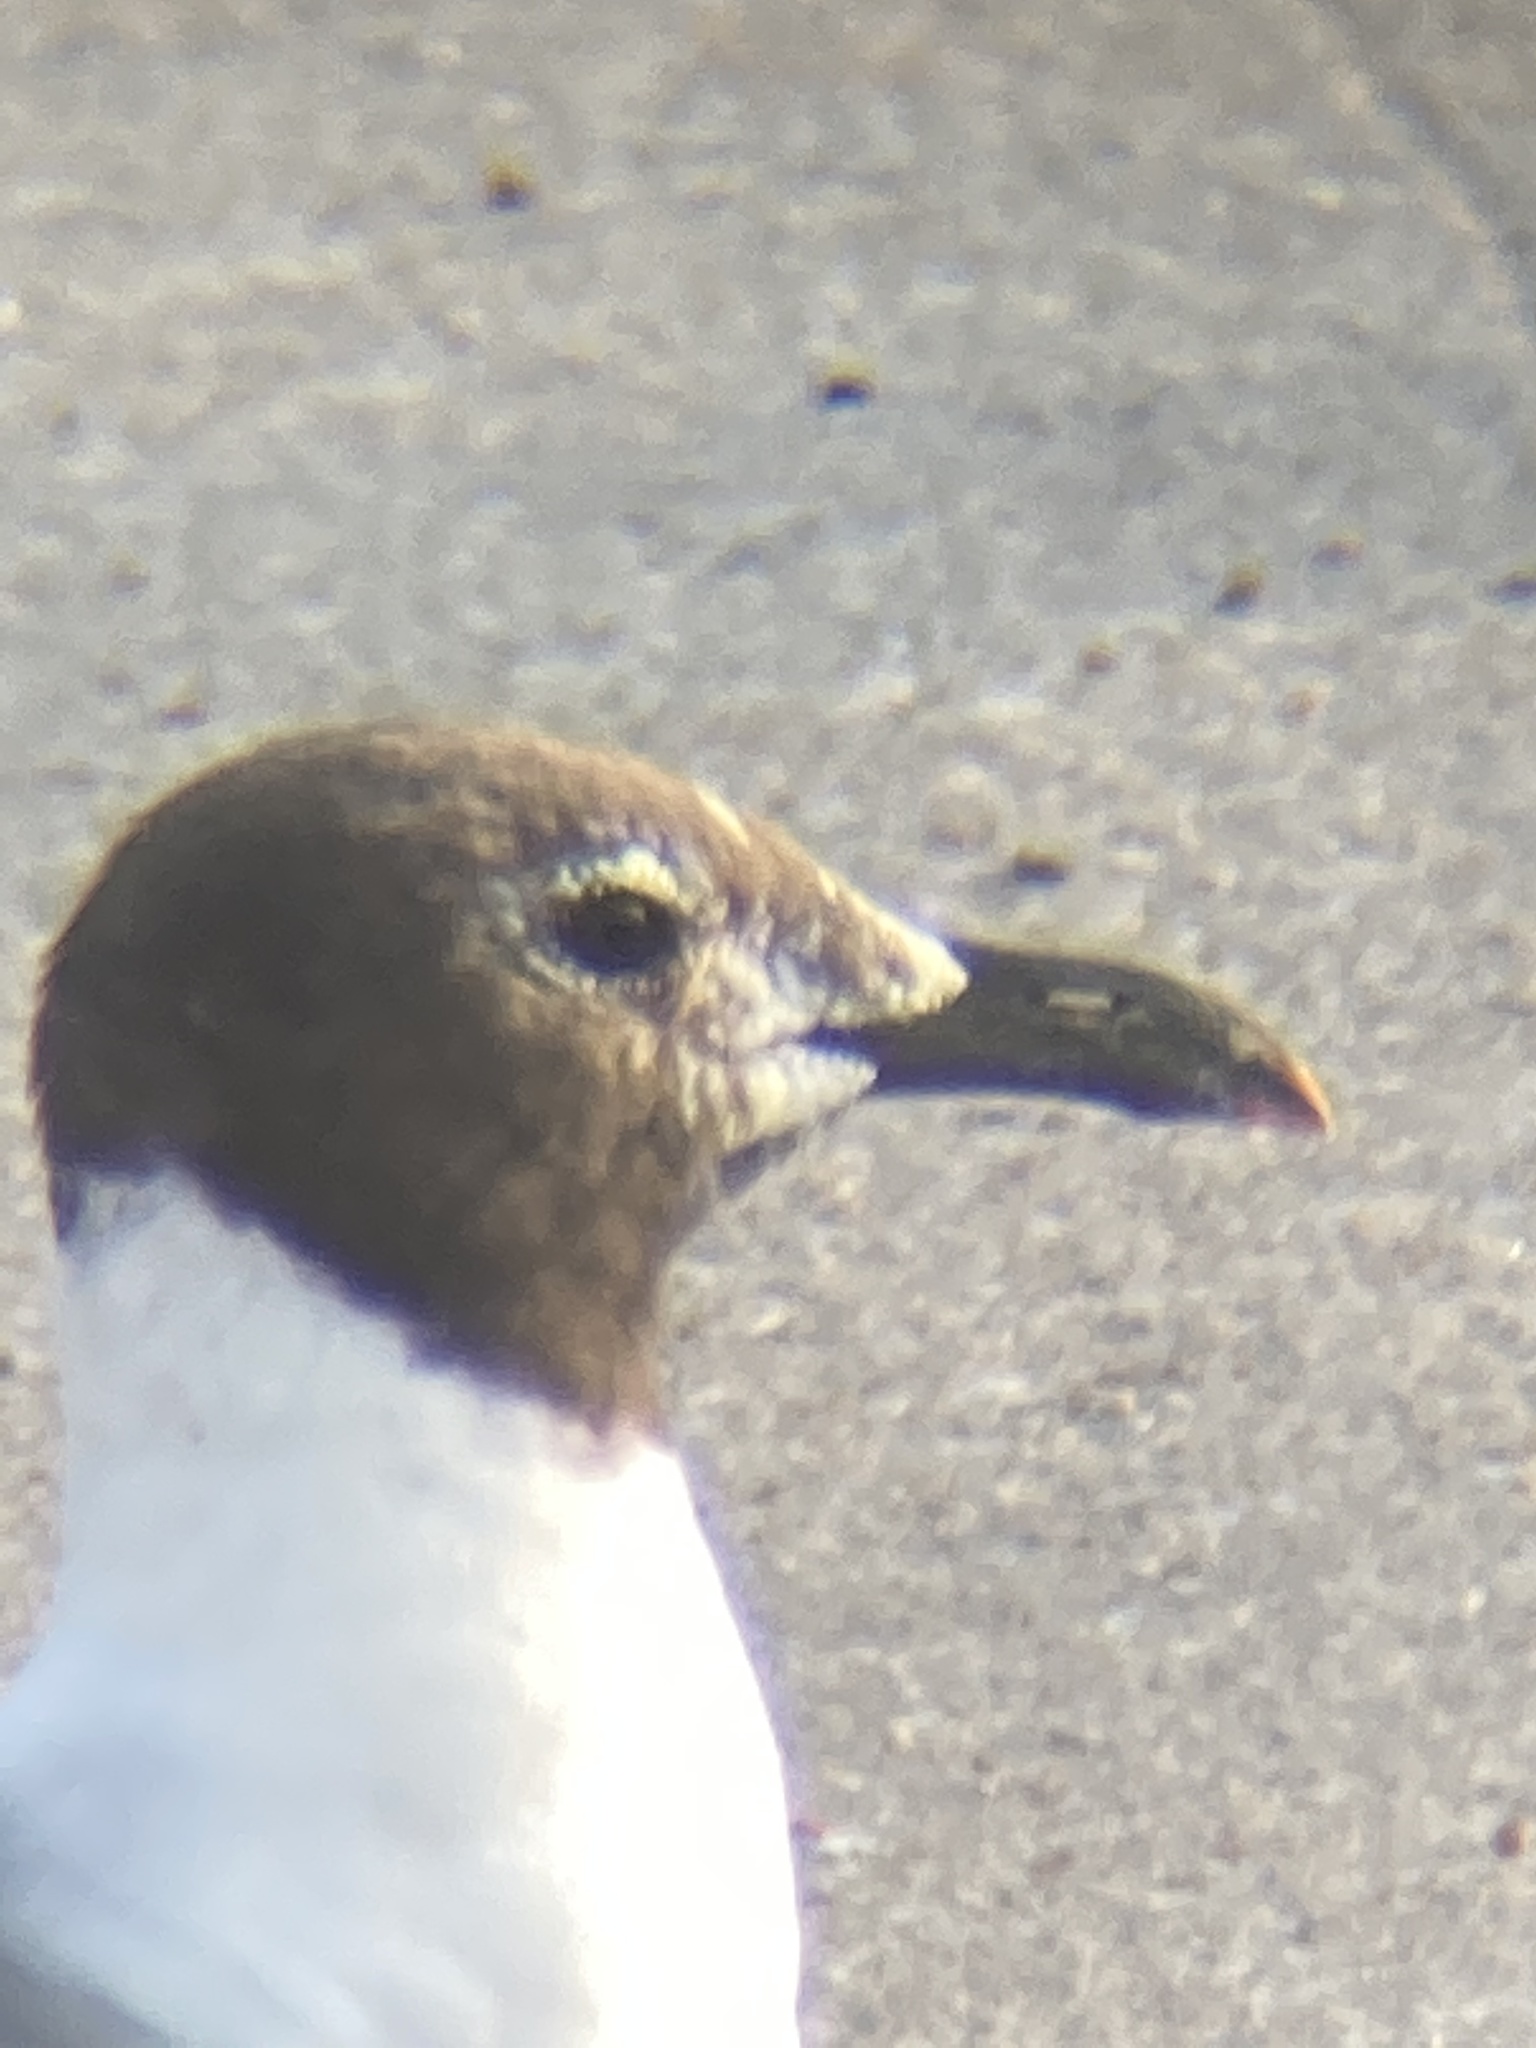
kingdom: Animalia
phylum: Chordata
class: Aves
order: Charadriiformes
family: Laridae
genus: Leucophaeus
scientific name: Leucophaeus atricilla
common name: Laughing gull
